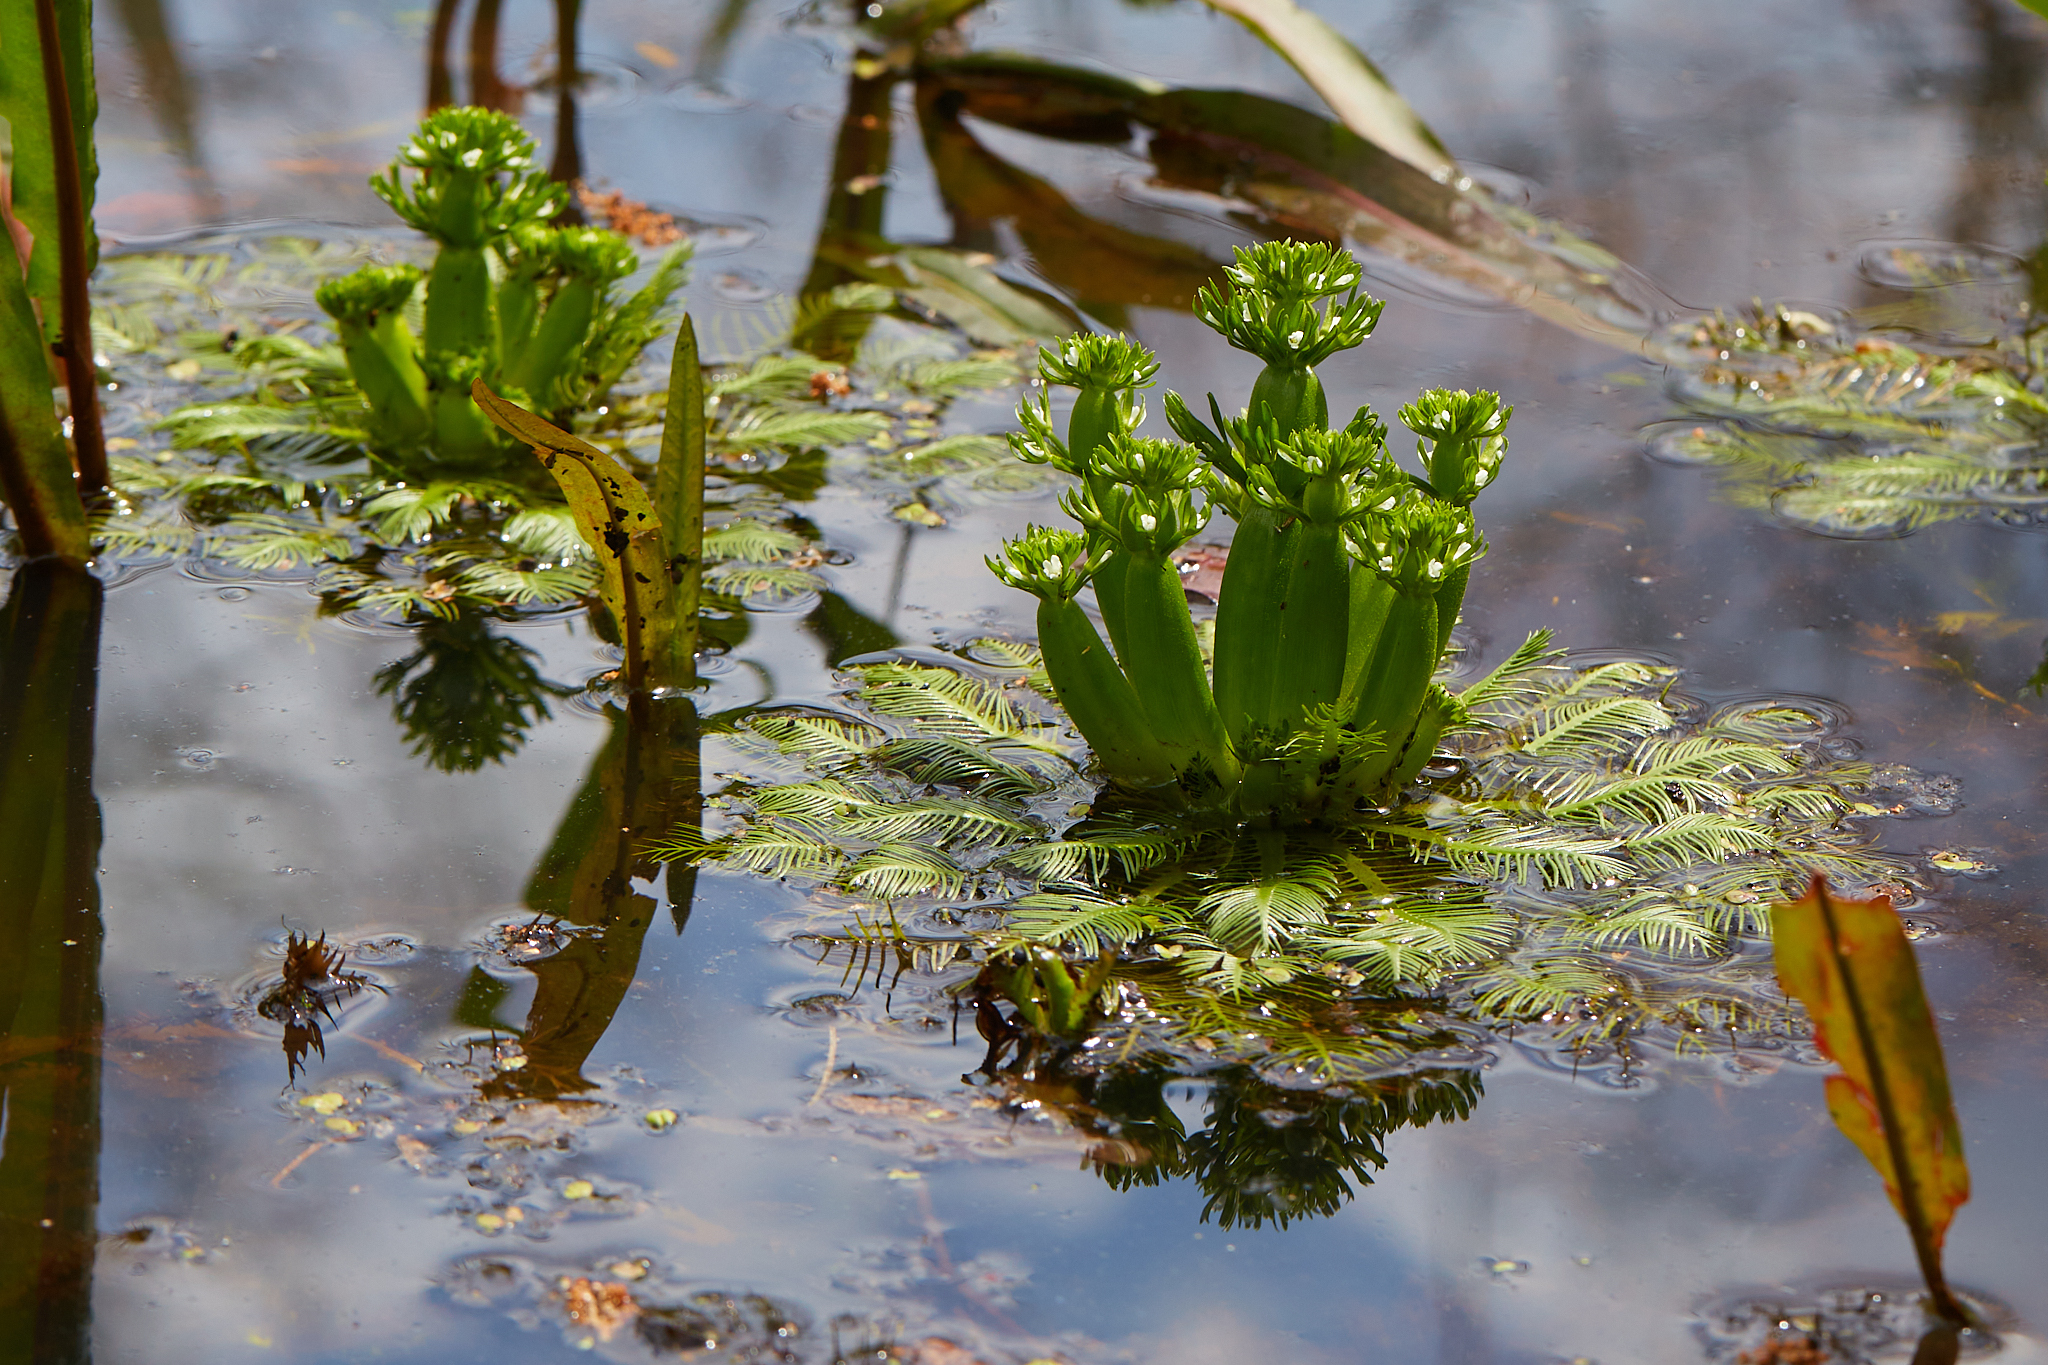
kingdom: Plantae
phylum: Tracheophyta
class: Magnoliopsida
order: Ericales
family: Primulaceae
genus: Hottonia
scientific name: Hottonia inflata
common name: American featherfoil
